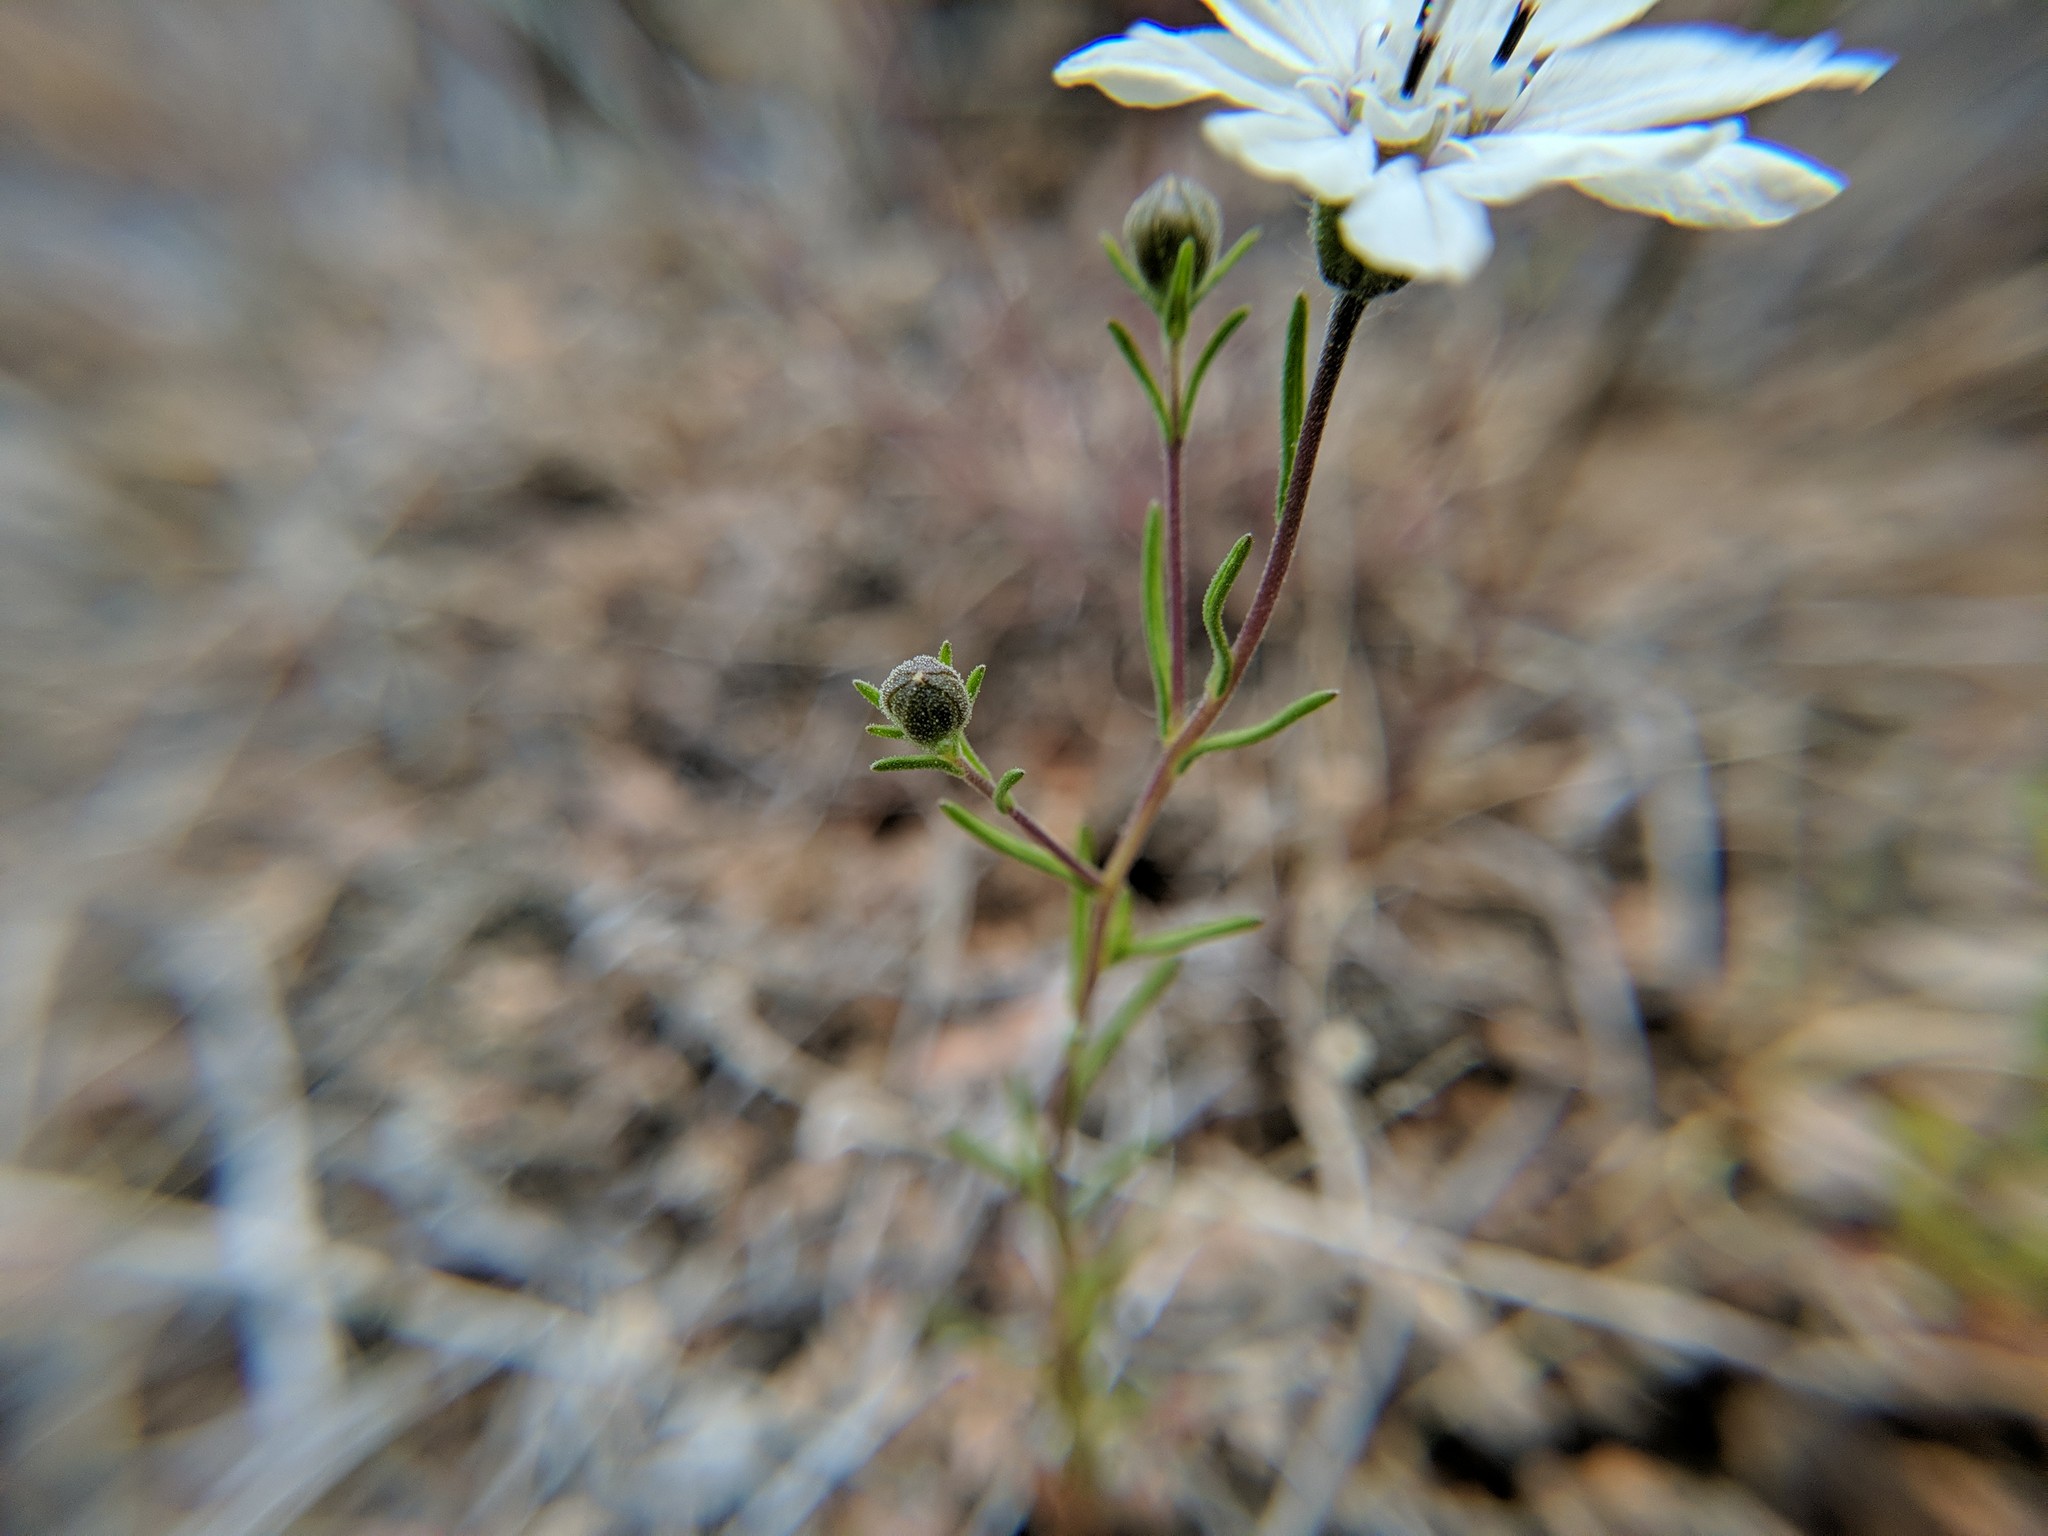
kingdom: Plantae
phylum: Tracheophyta
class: Magnoliopsida
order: Asterales
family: Asteraceae
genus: Blepharipappus
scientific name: Blepharipappus scaber
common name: Rough blepharipappus
